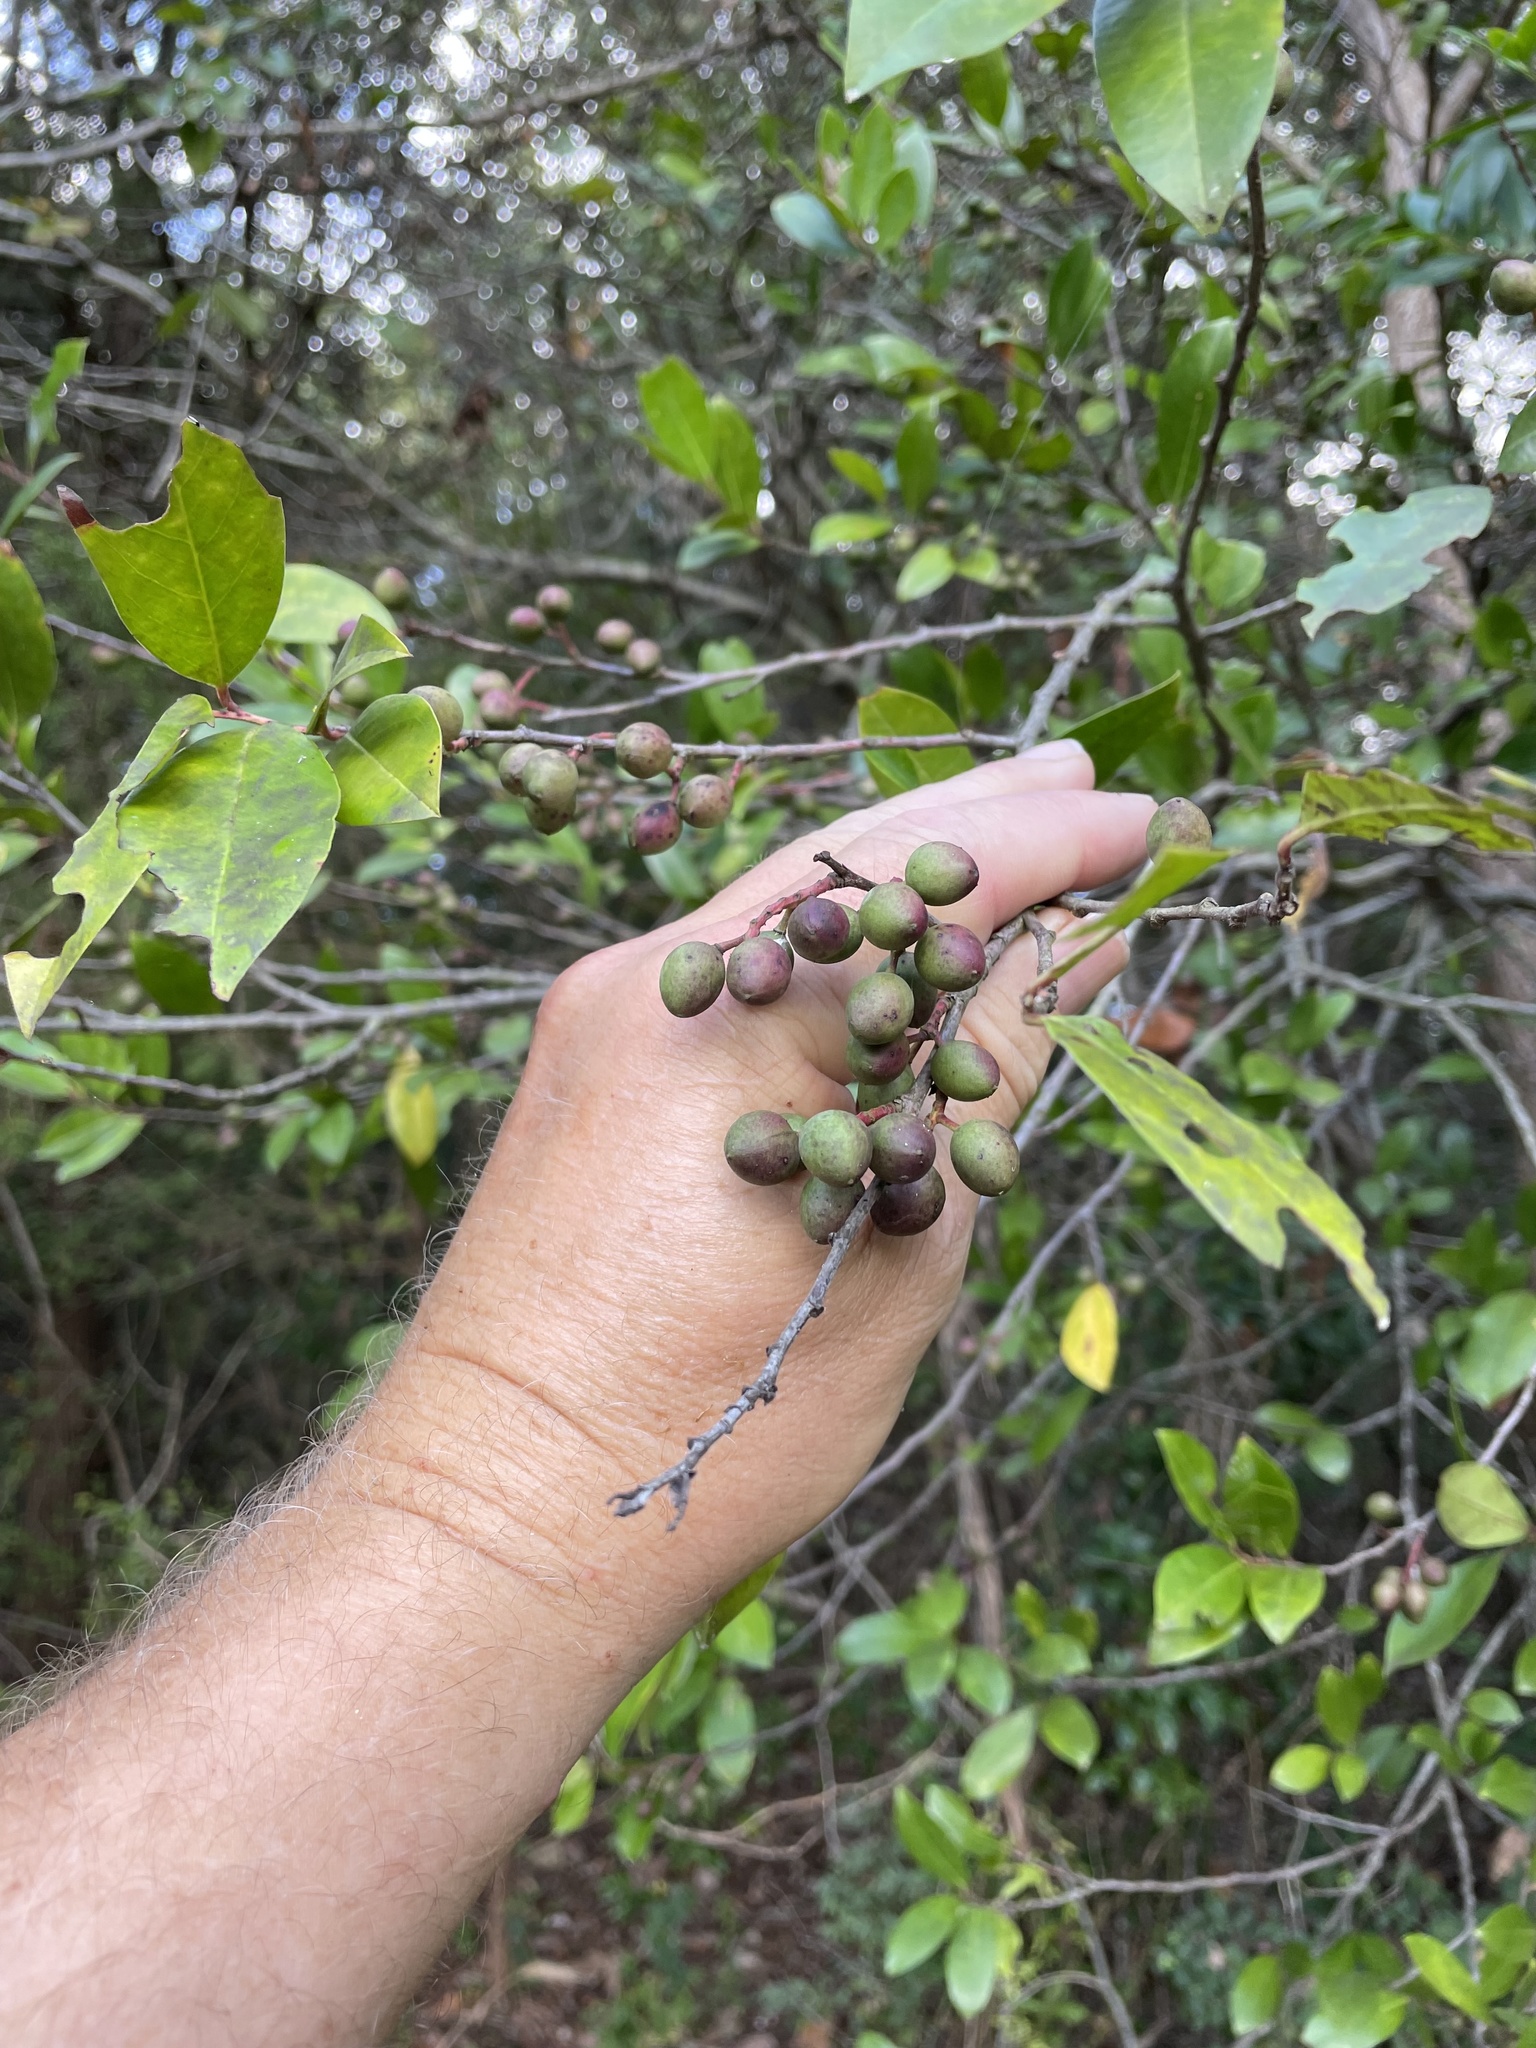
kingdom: Plantae
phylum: Tracheophyta
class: Magnoliopsida
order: Rosales
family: Rosaceae
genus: Prunus
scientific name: Prunus caroliniana
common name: Carolina laurel cherry
